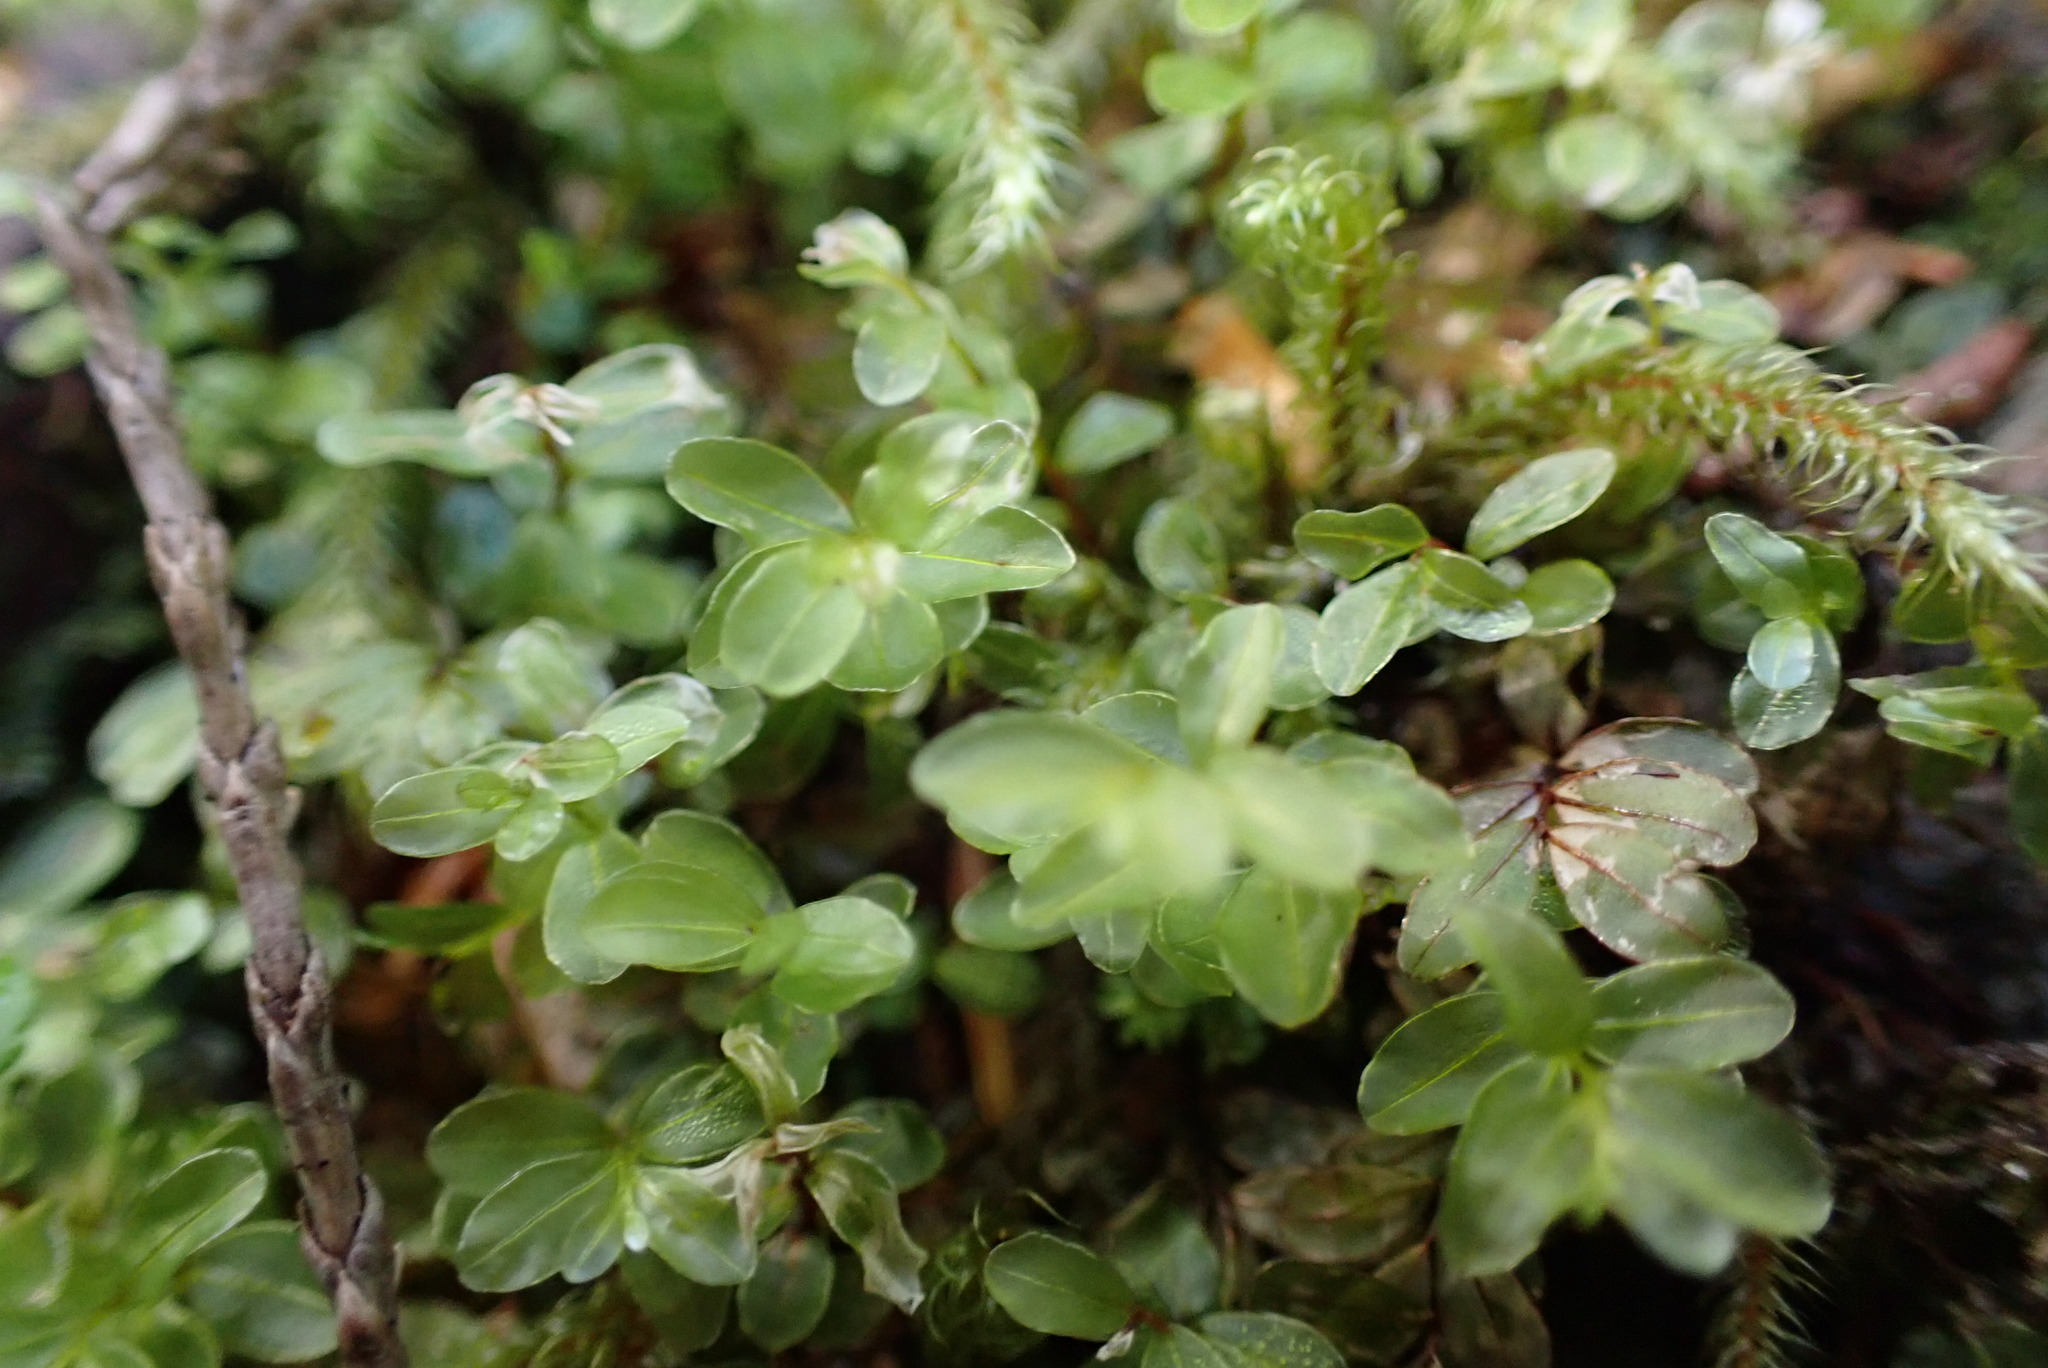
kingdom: Plantae
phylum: Bryophyta
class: Bryopsida
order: Bryales
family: Mniaceae
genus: Rhizomnium
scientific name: Rhizomnium glabrescens
